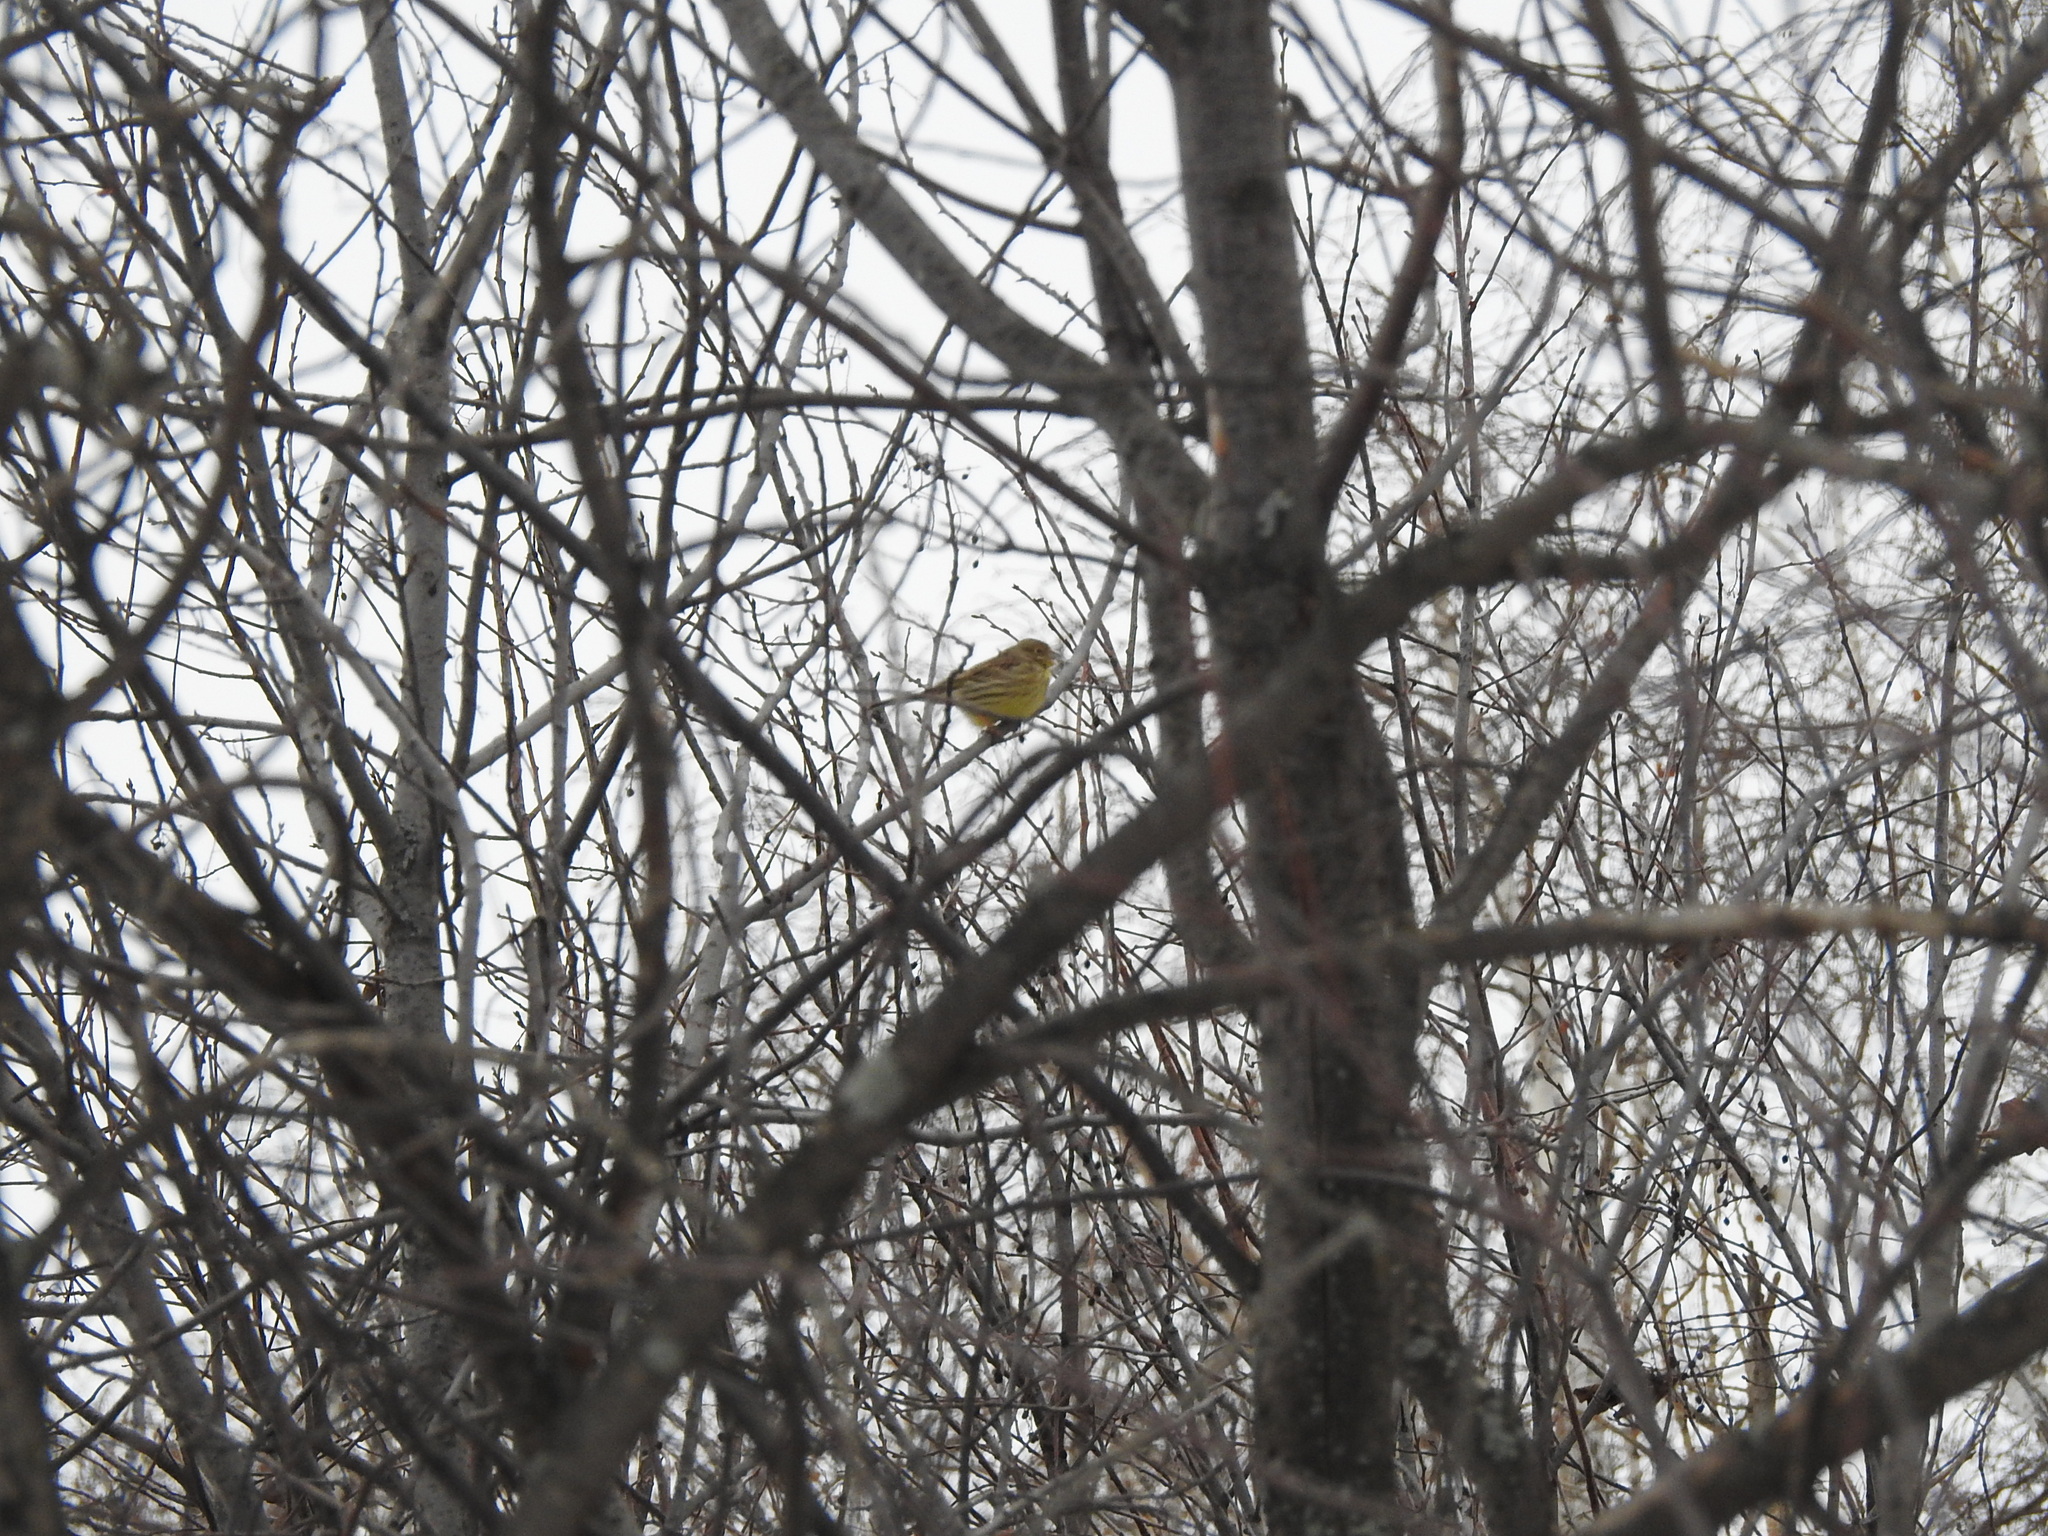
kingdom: Animalia
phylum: Chordata
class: Aves
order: Passeriformes
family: Emberizidae
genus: Emberiza
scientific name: Emberiza citrinella
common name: Yellowhammer
